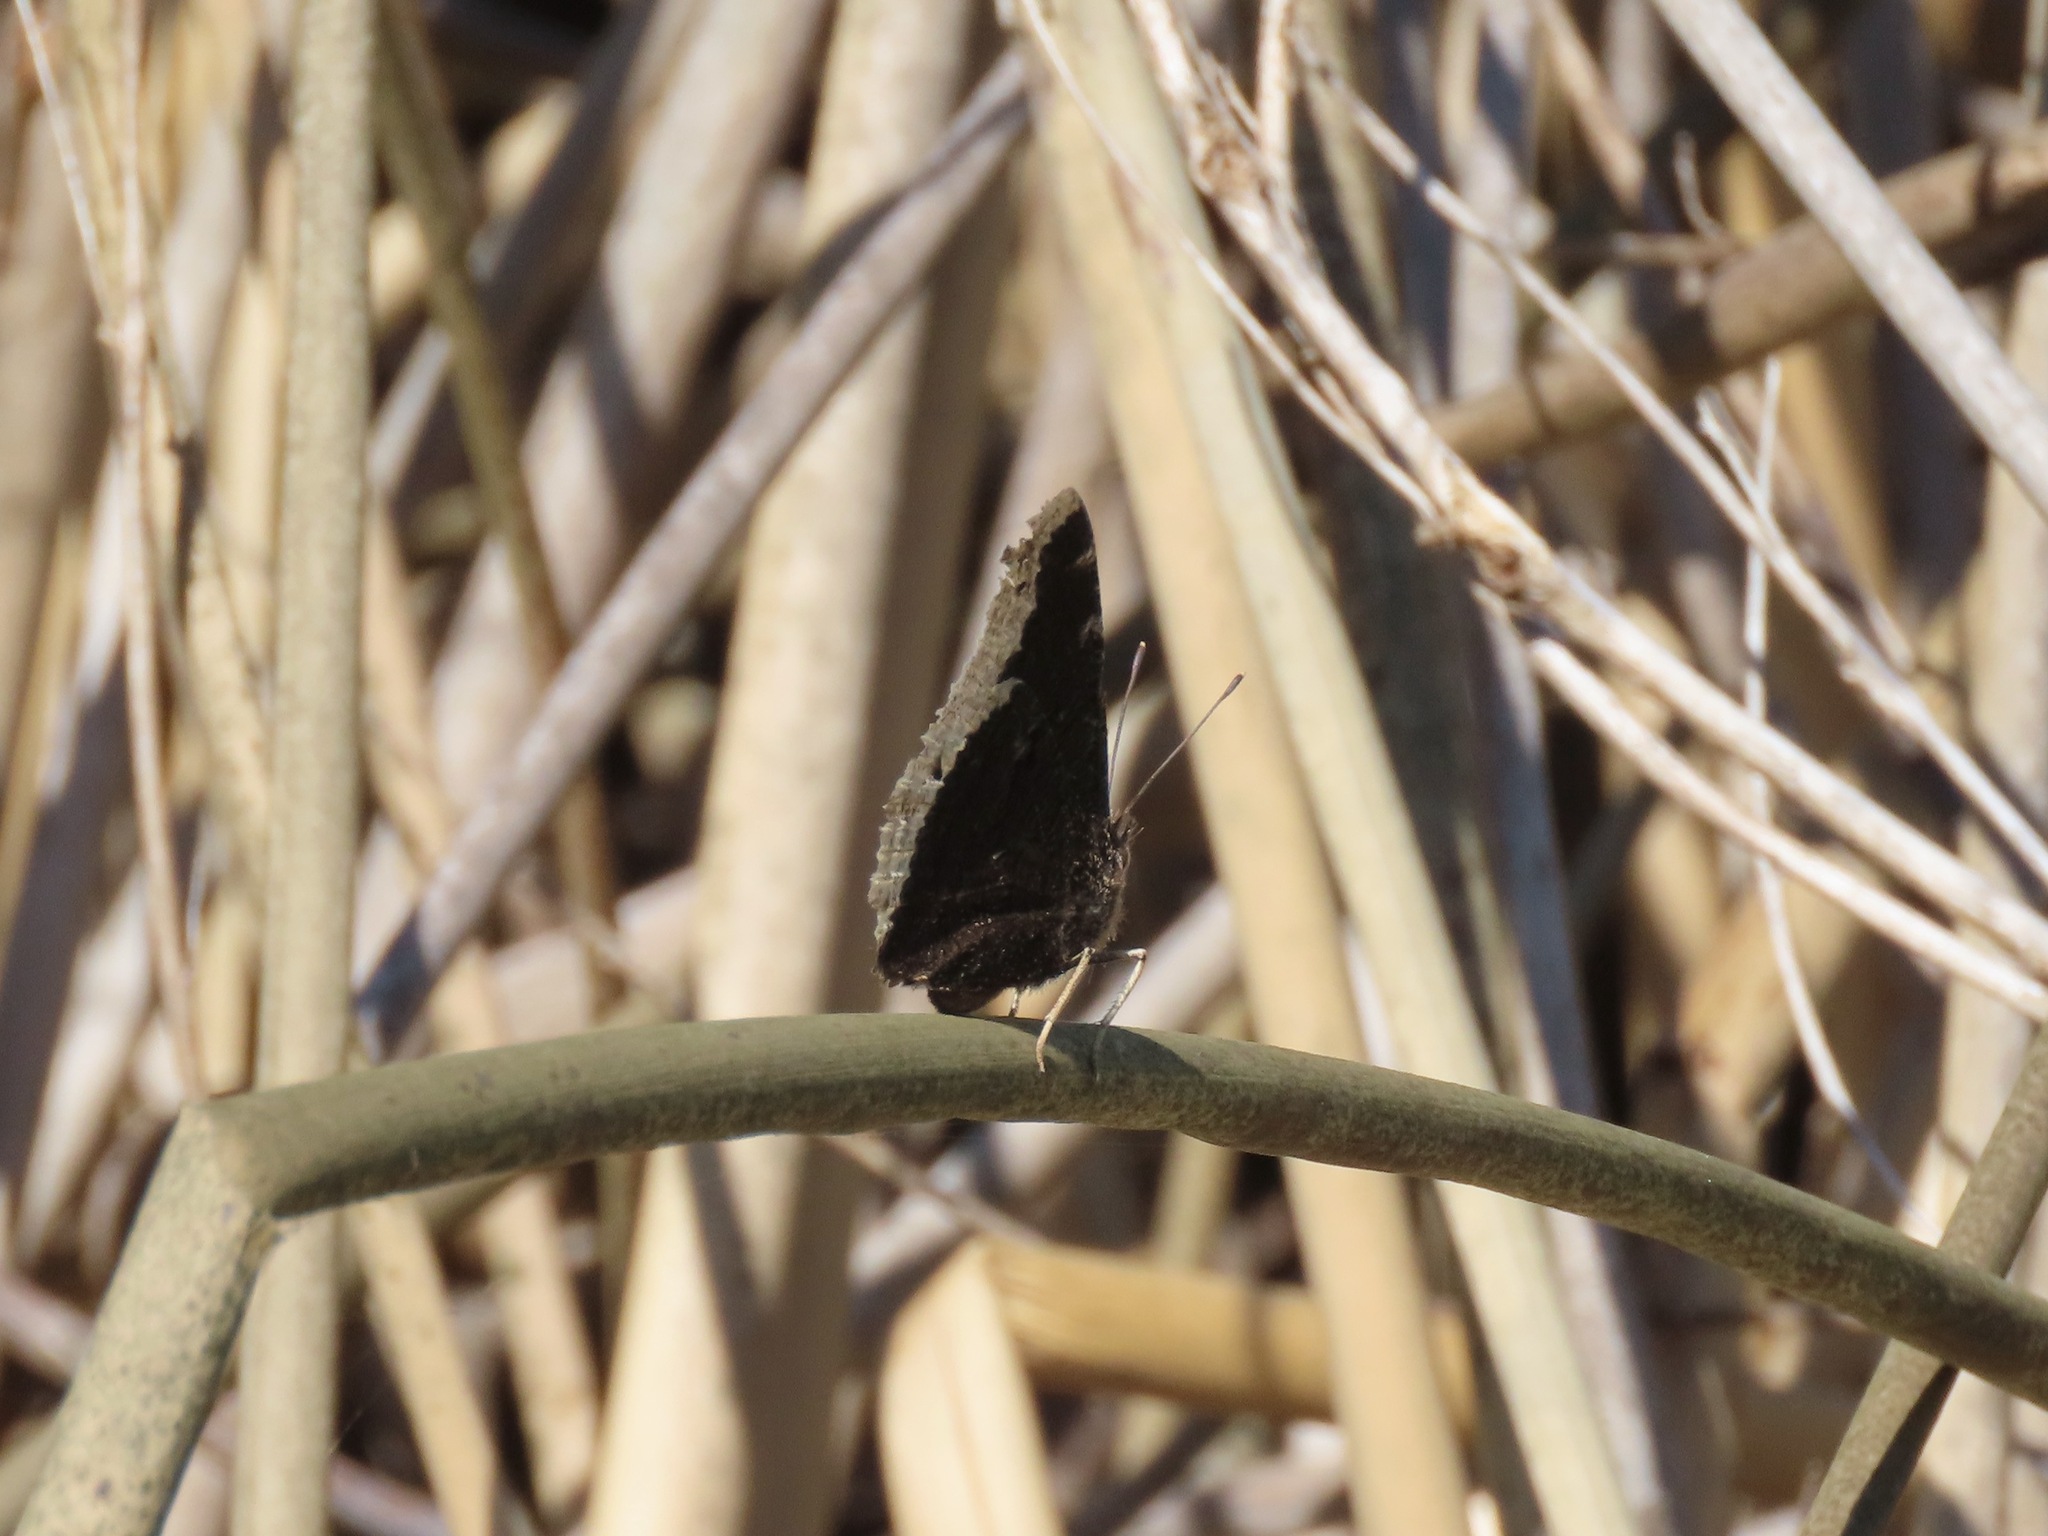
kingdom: Animalia
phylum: Arthropoda
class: Insecta
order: Lepidoptera
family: Nymphalidae
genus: Nymphalis
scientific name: Nymphalis antiopa
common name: Camberwell beauty
